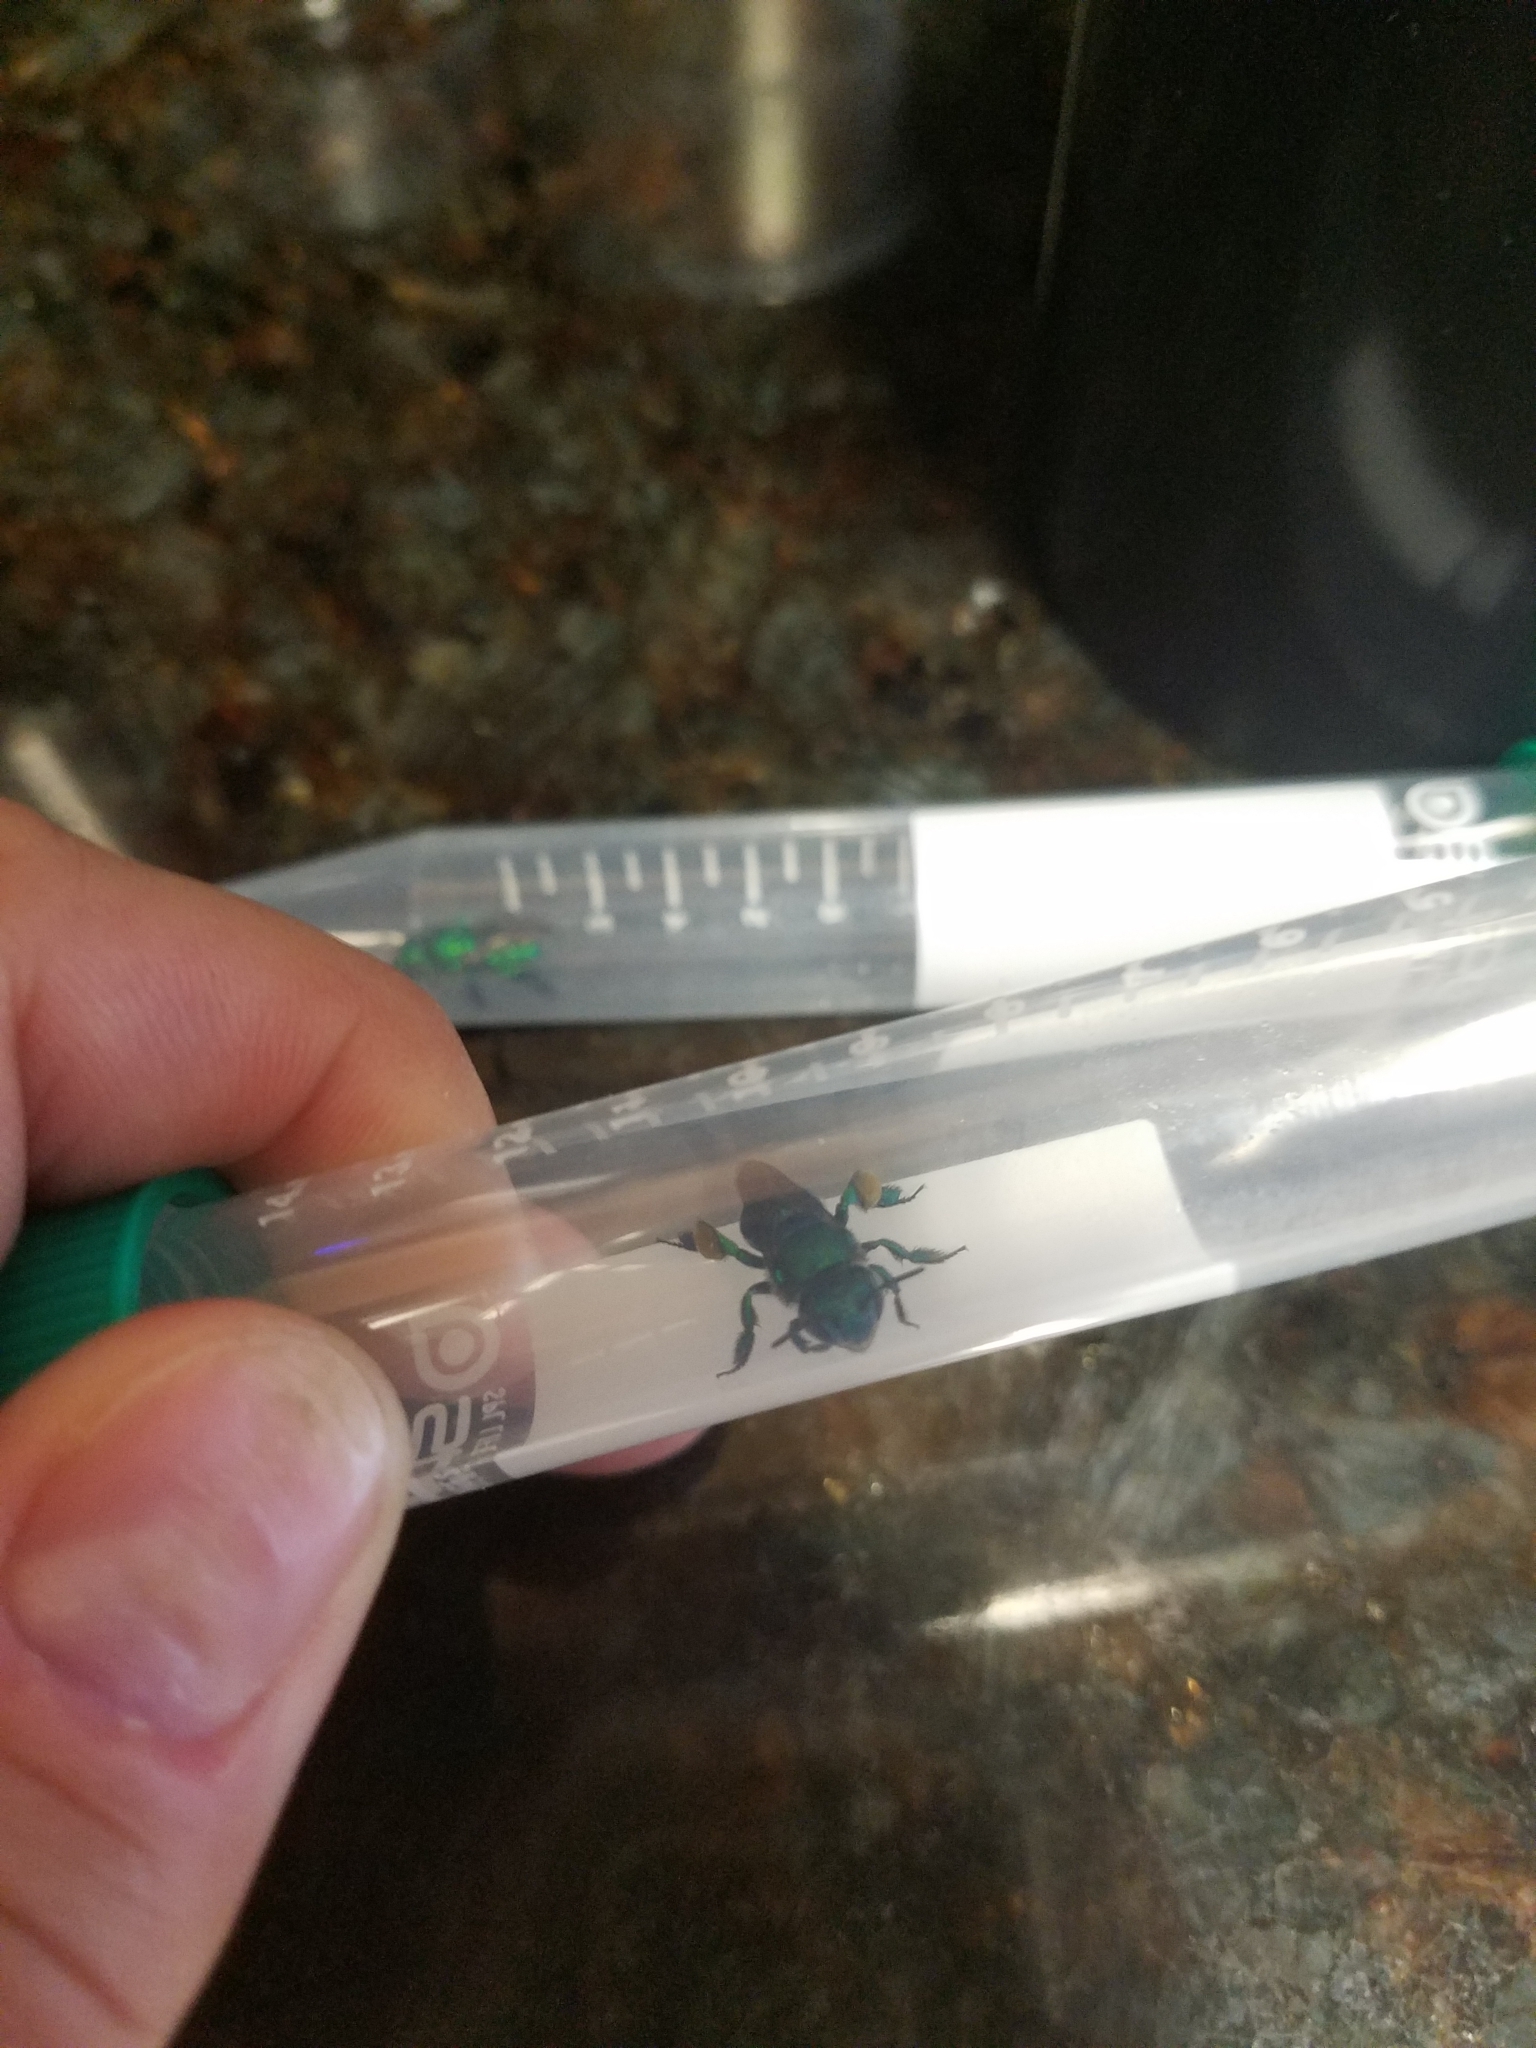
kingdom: Animalia
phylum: Arthropoda
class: Insecta
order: Hymenoptera
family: Apidae
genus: Euglossa
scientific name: Euglossa dilemma
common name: Green orchid bee
